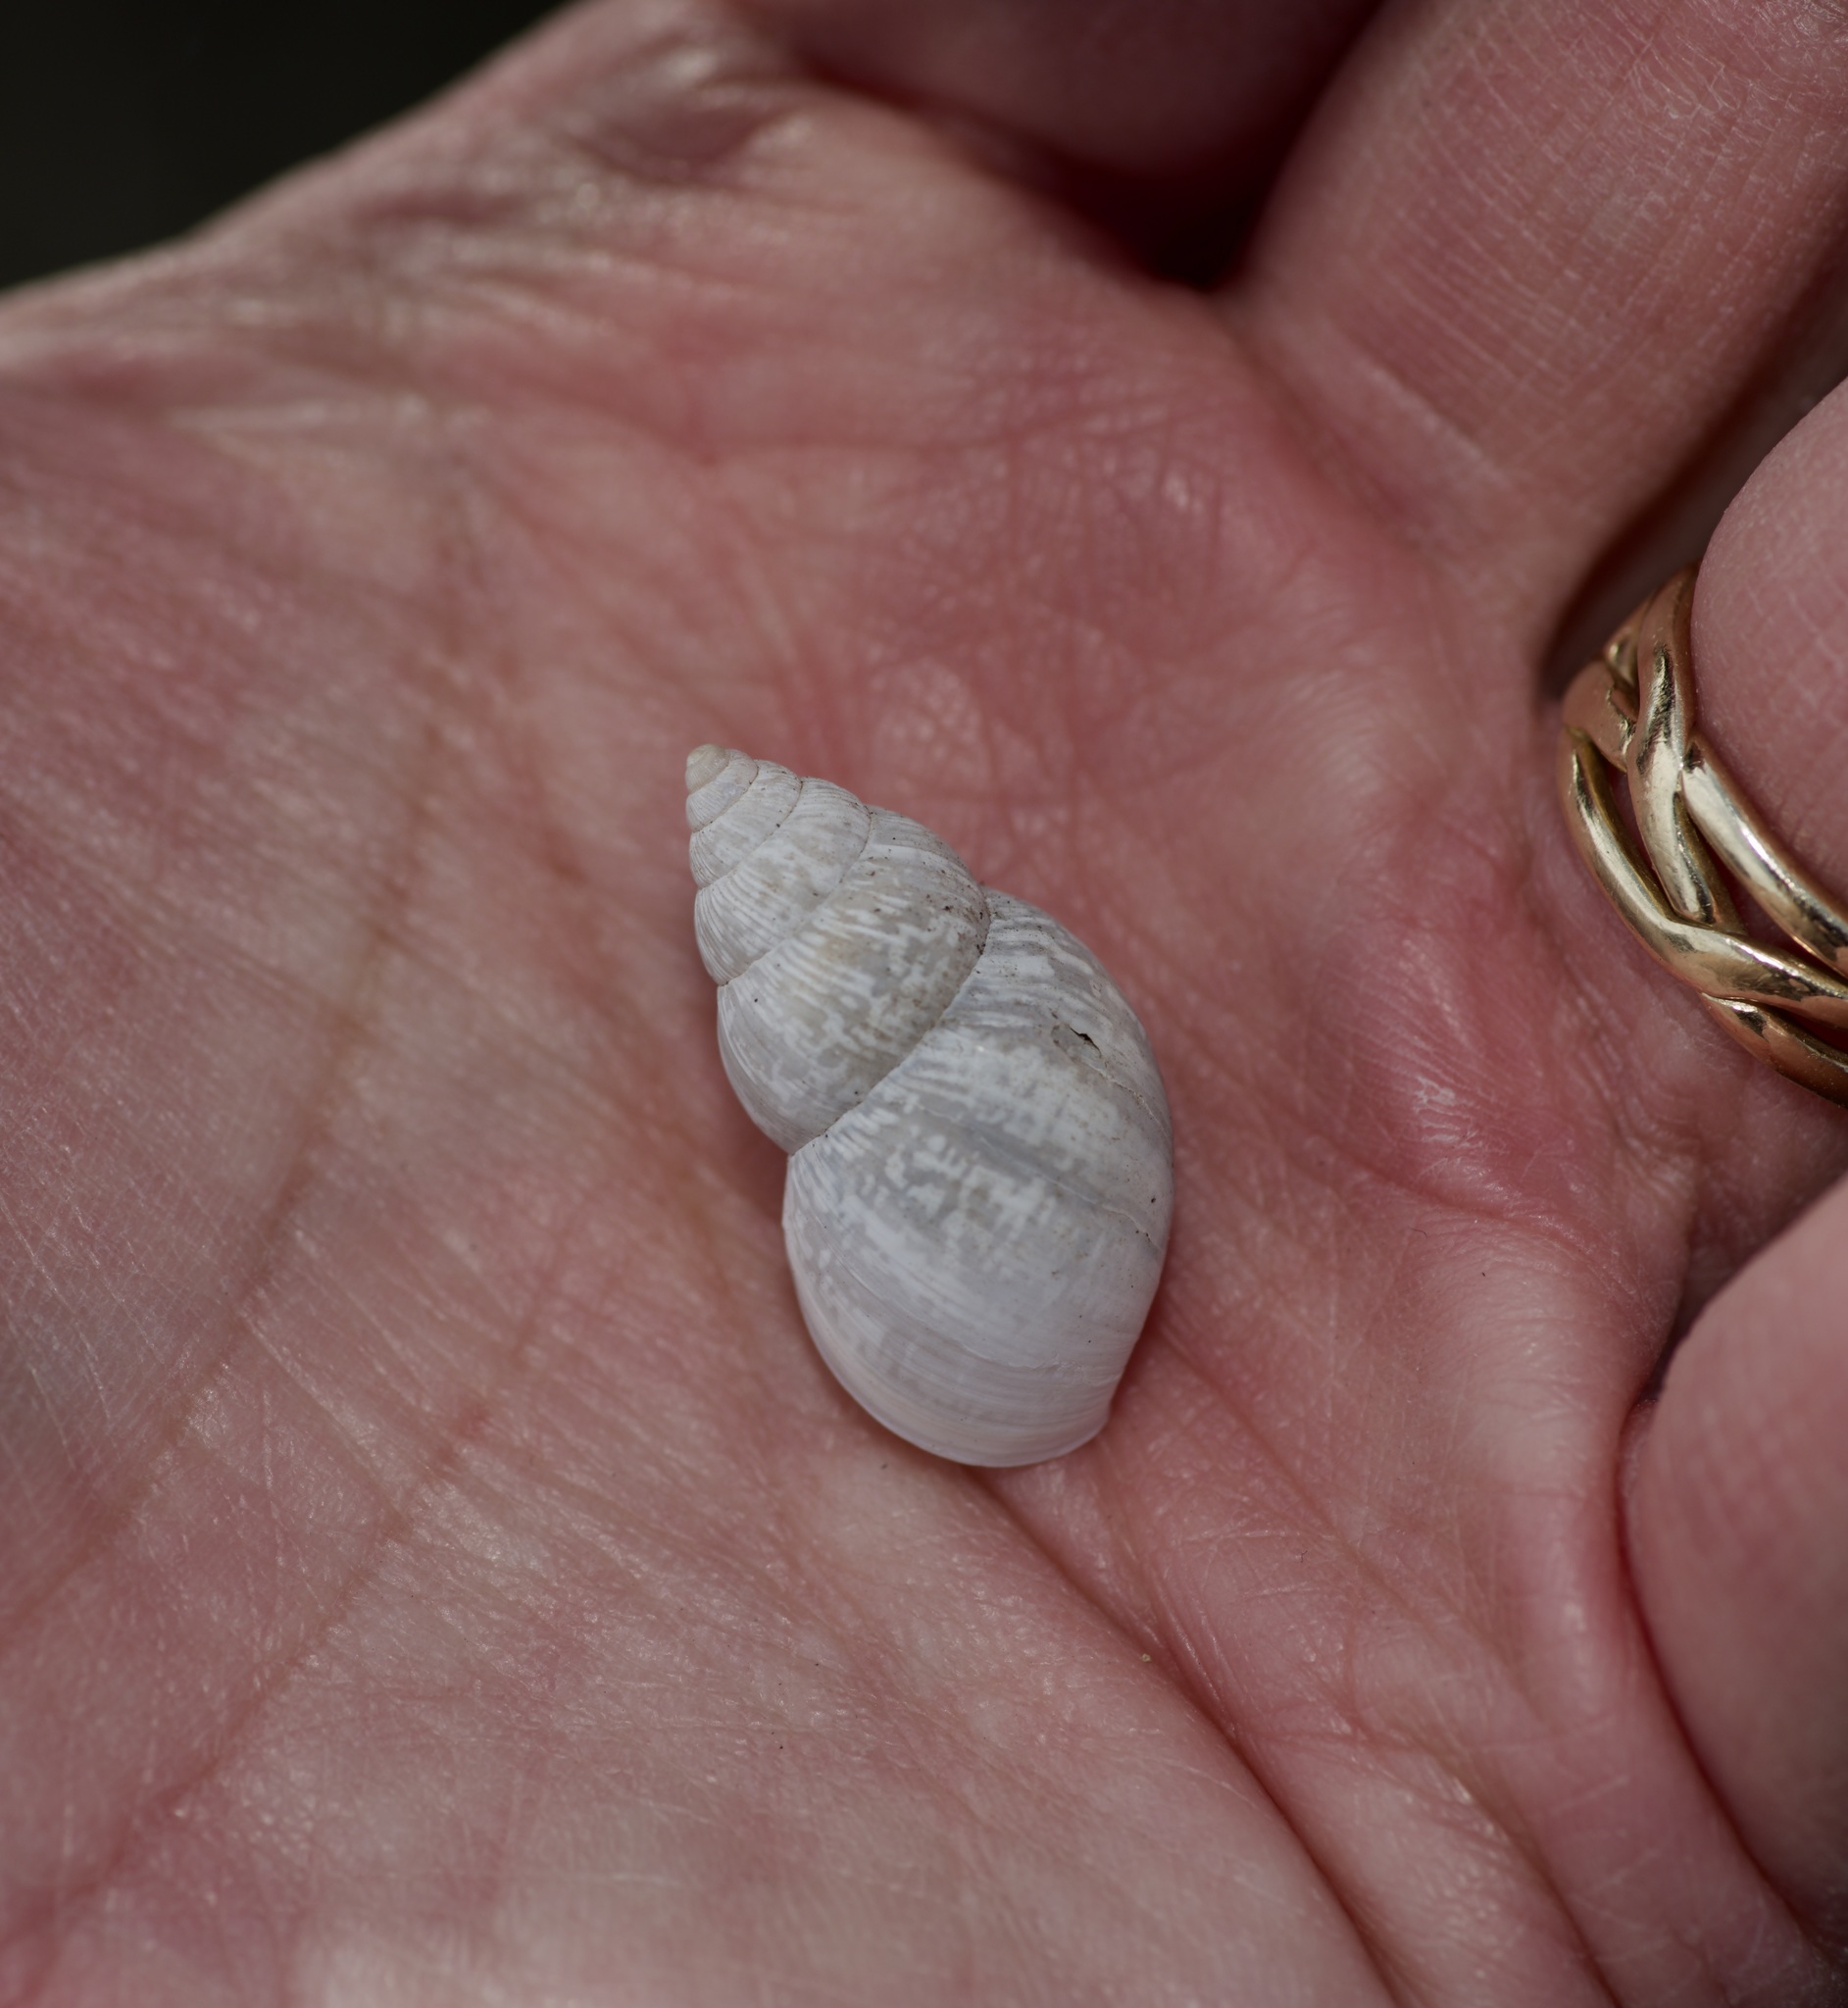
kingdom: Animalia
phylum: Mollusca
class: Gastropoda
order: Stylommatophora
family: Bulimulidae
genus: Rabdotus
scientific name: Rabdotus dealbatus
